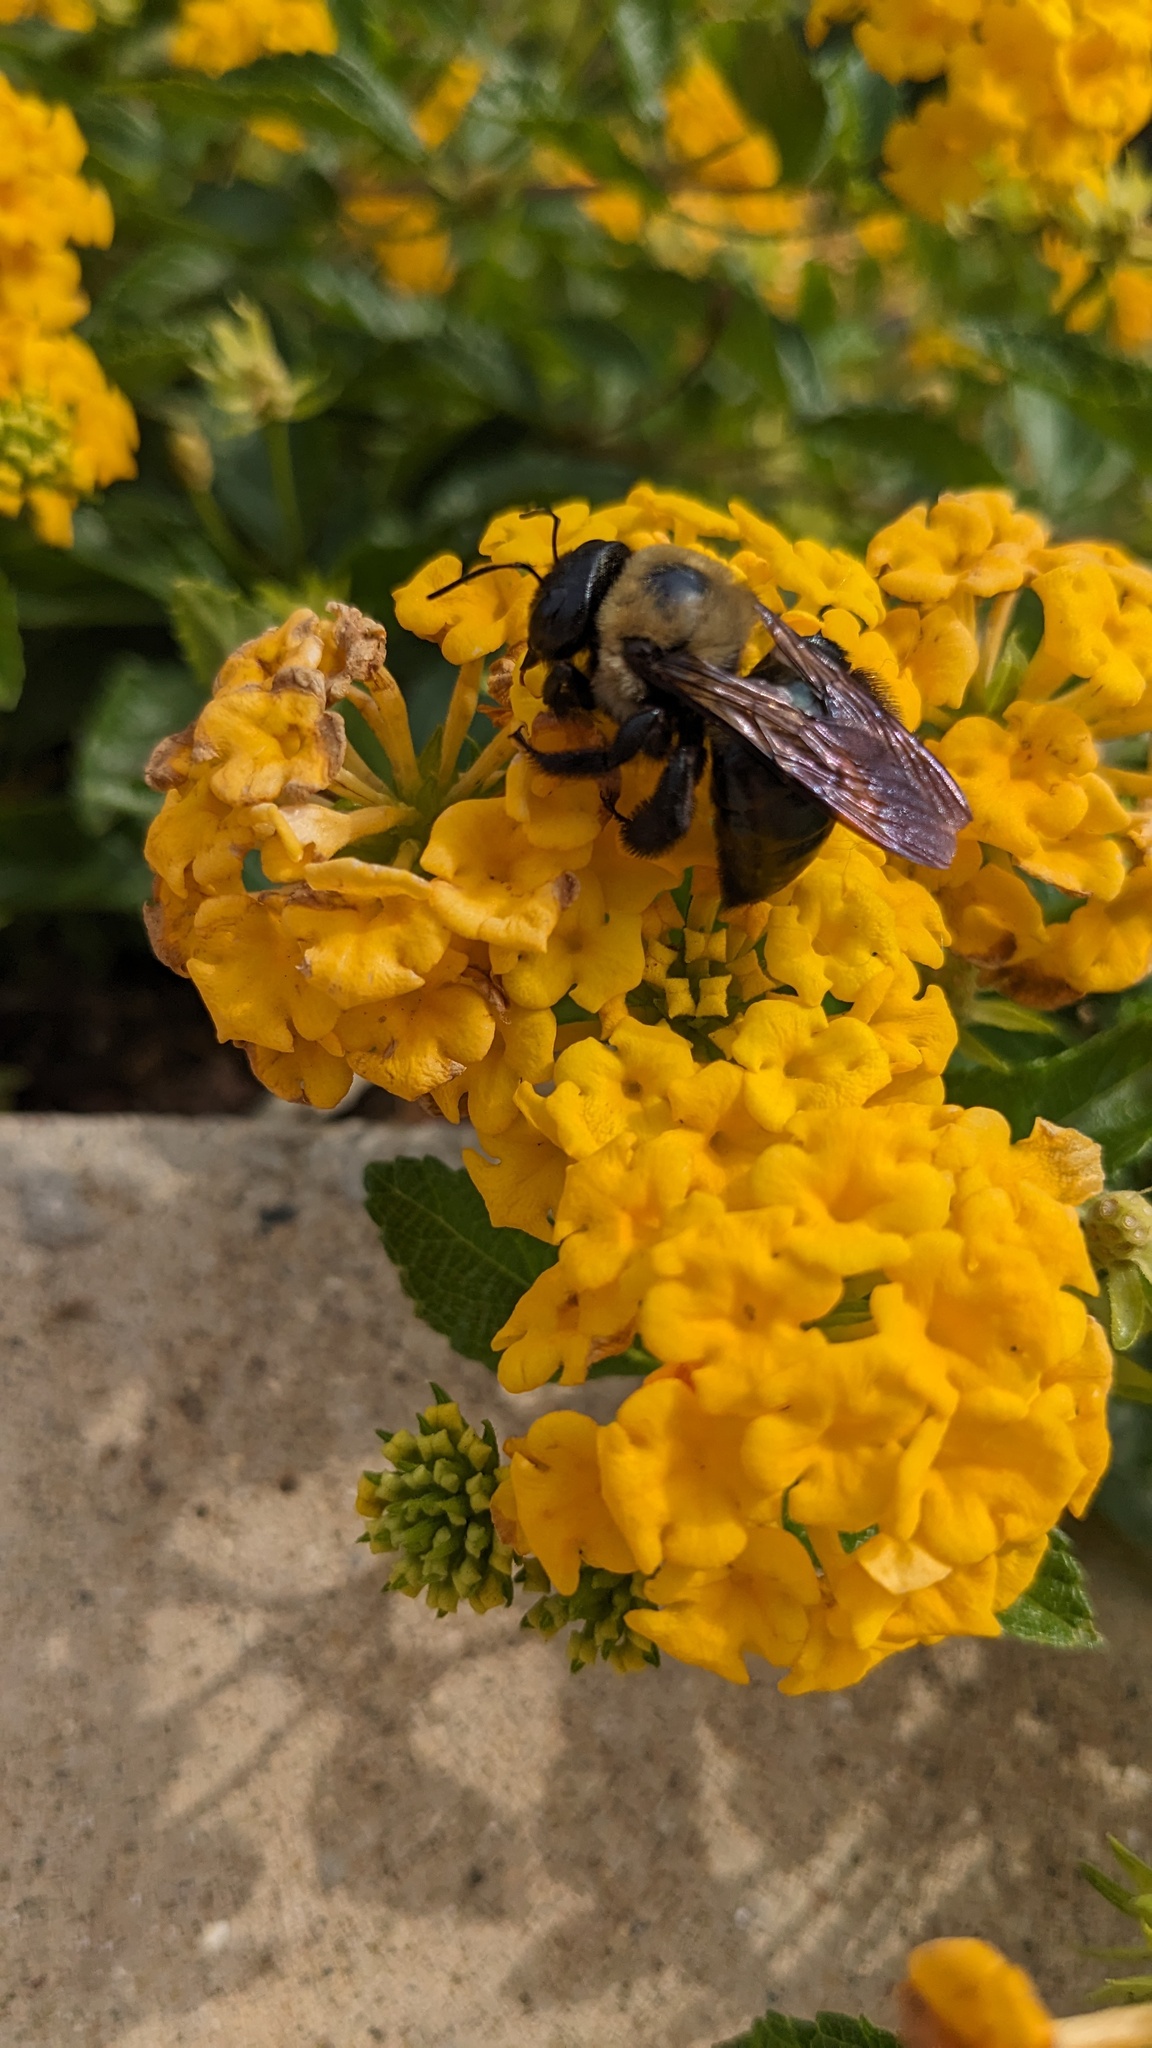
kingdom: Animalia
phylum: Arthropoda
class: Insecta
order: Hymenoptera
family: Apidae
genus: Xylocopa
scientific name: Xylocopa virginica
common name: Carpenter bee
